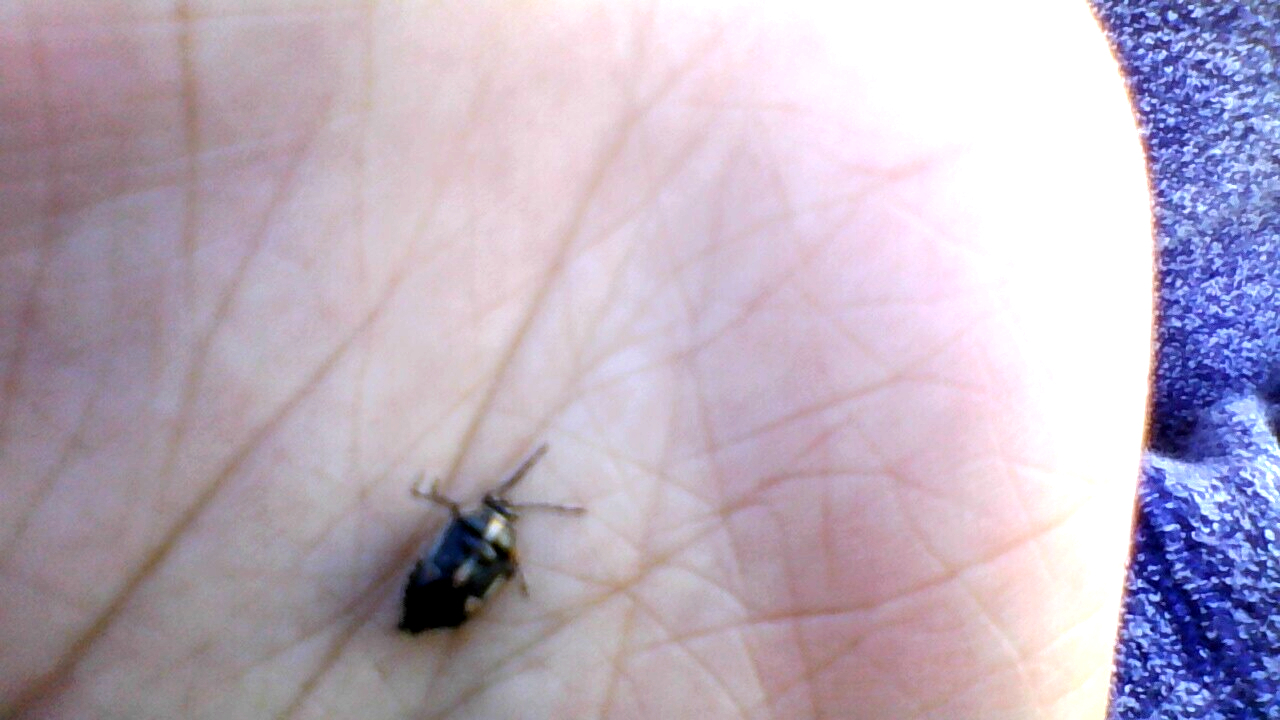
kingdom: Animalia
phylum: Arthropoda
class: Insecta
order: Hemiptera
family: Pentatomidae
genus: Bagrada
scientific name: Bagrada hilaris
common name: Bagrada bug
